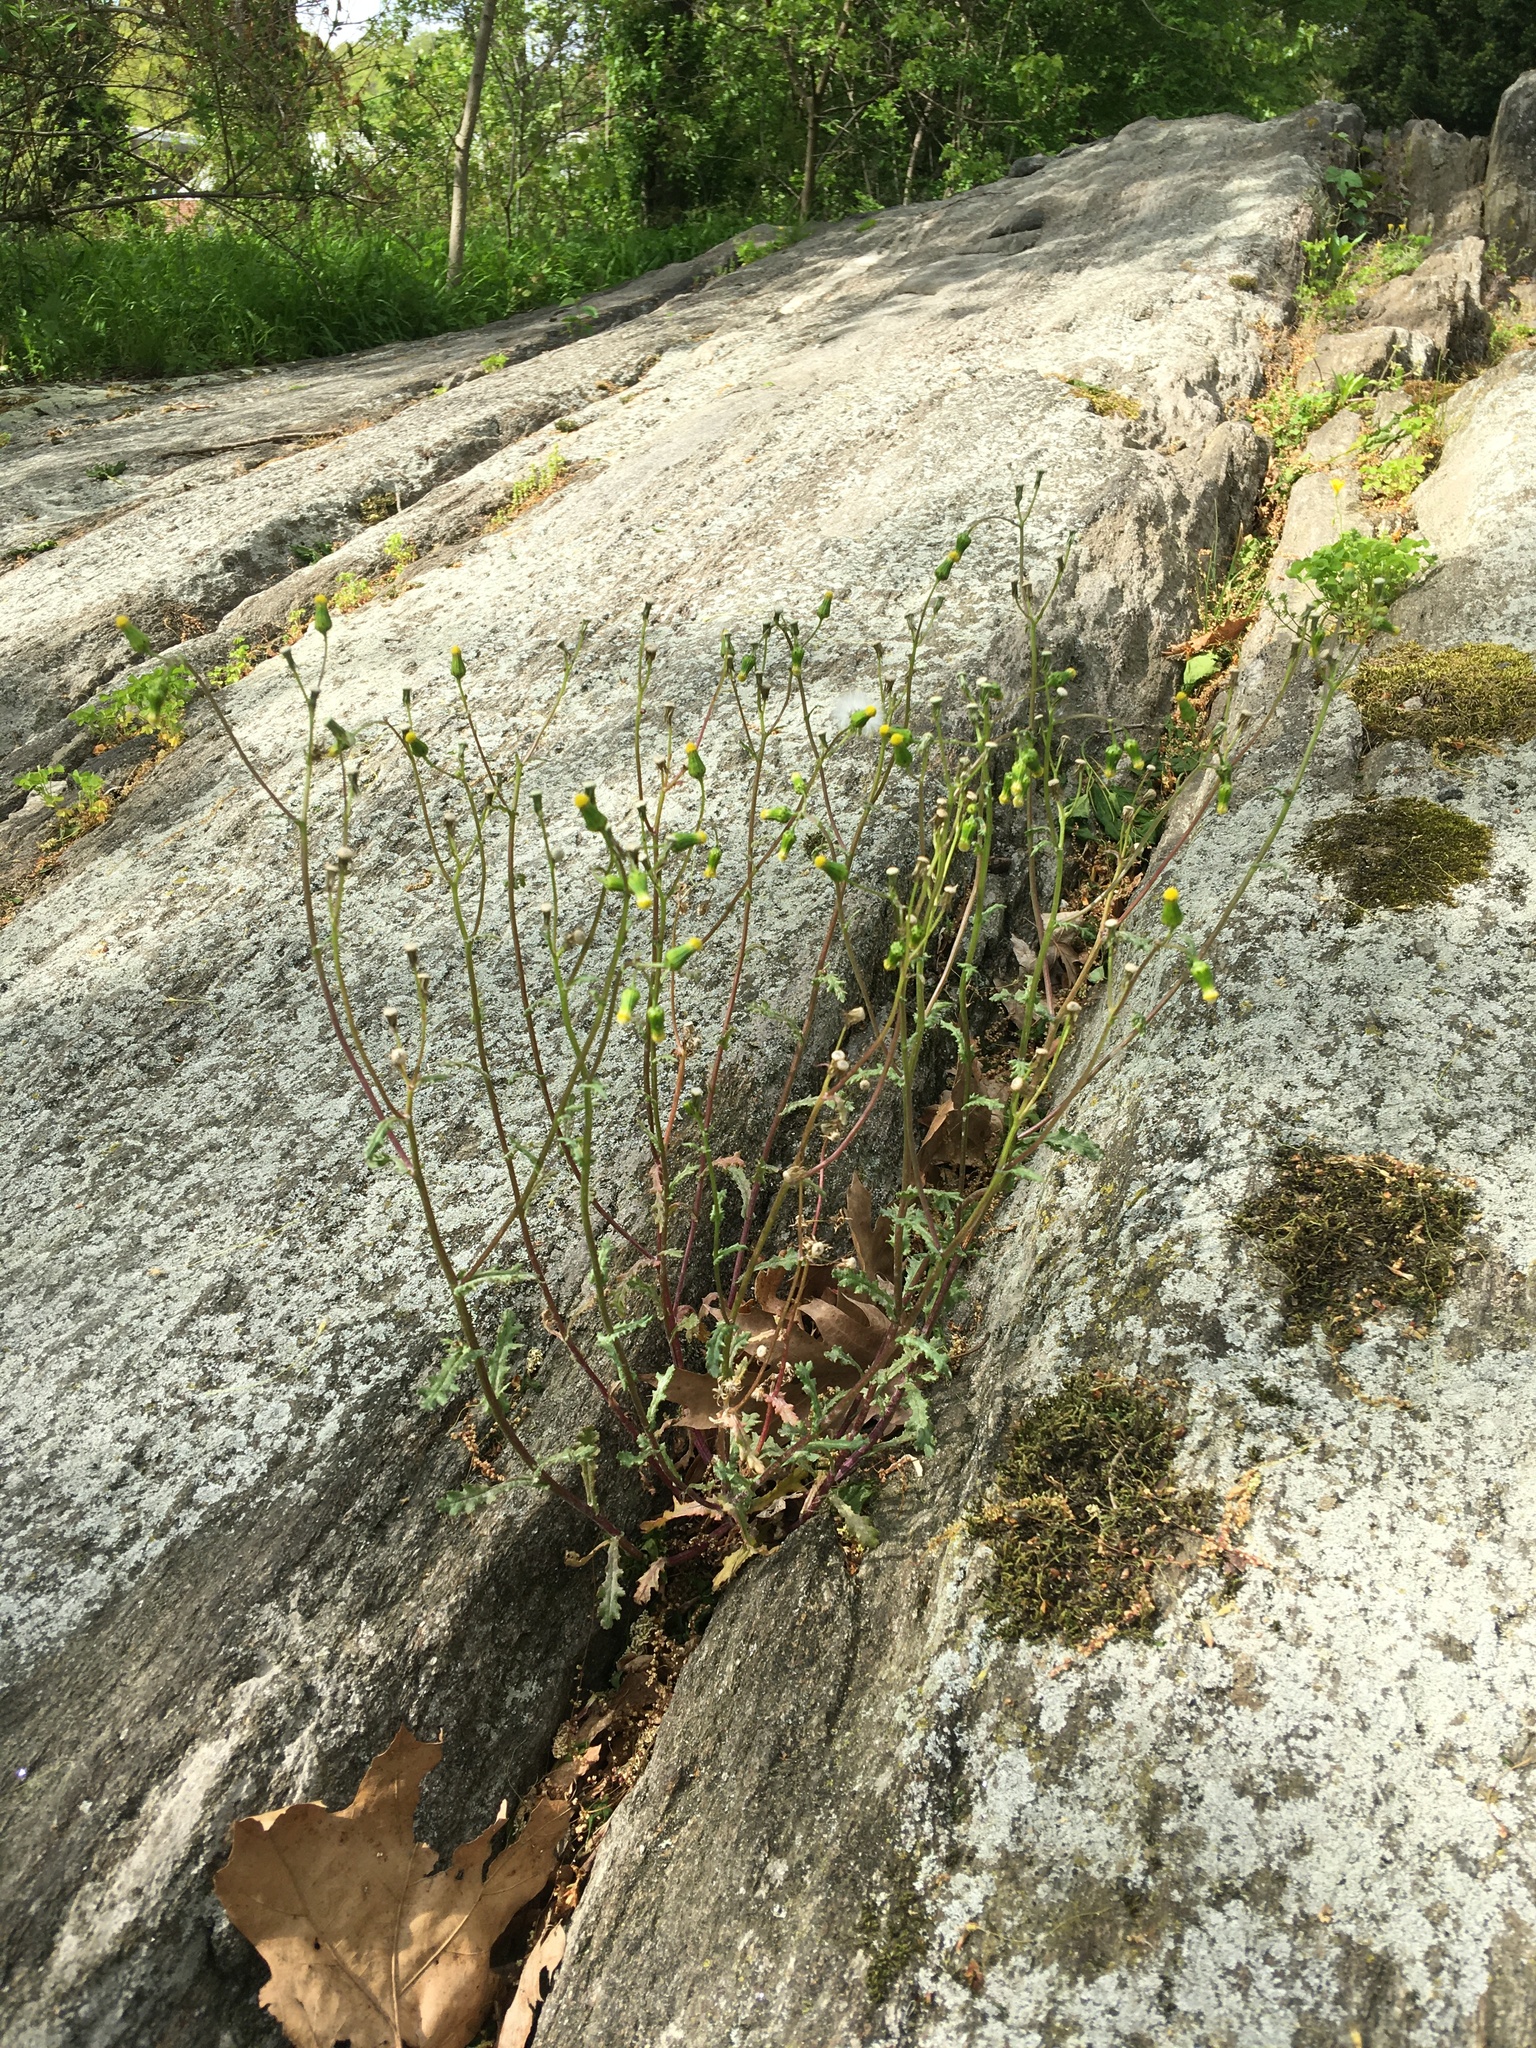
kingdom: Plantae
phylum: Tracheophyta
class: Magnoliopsida
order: Asterales
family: Asteraceae
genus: Senecio
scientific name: Senecio vulgaris
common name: Old-man-in-the-spring
